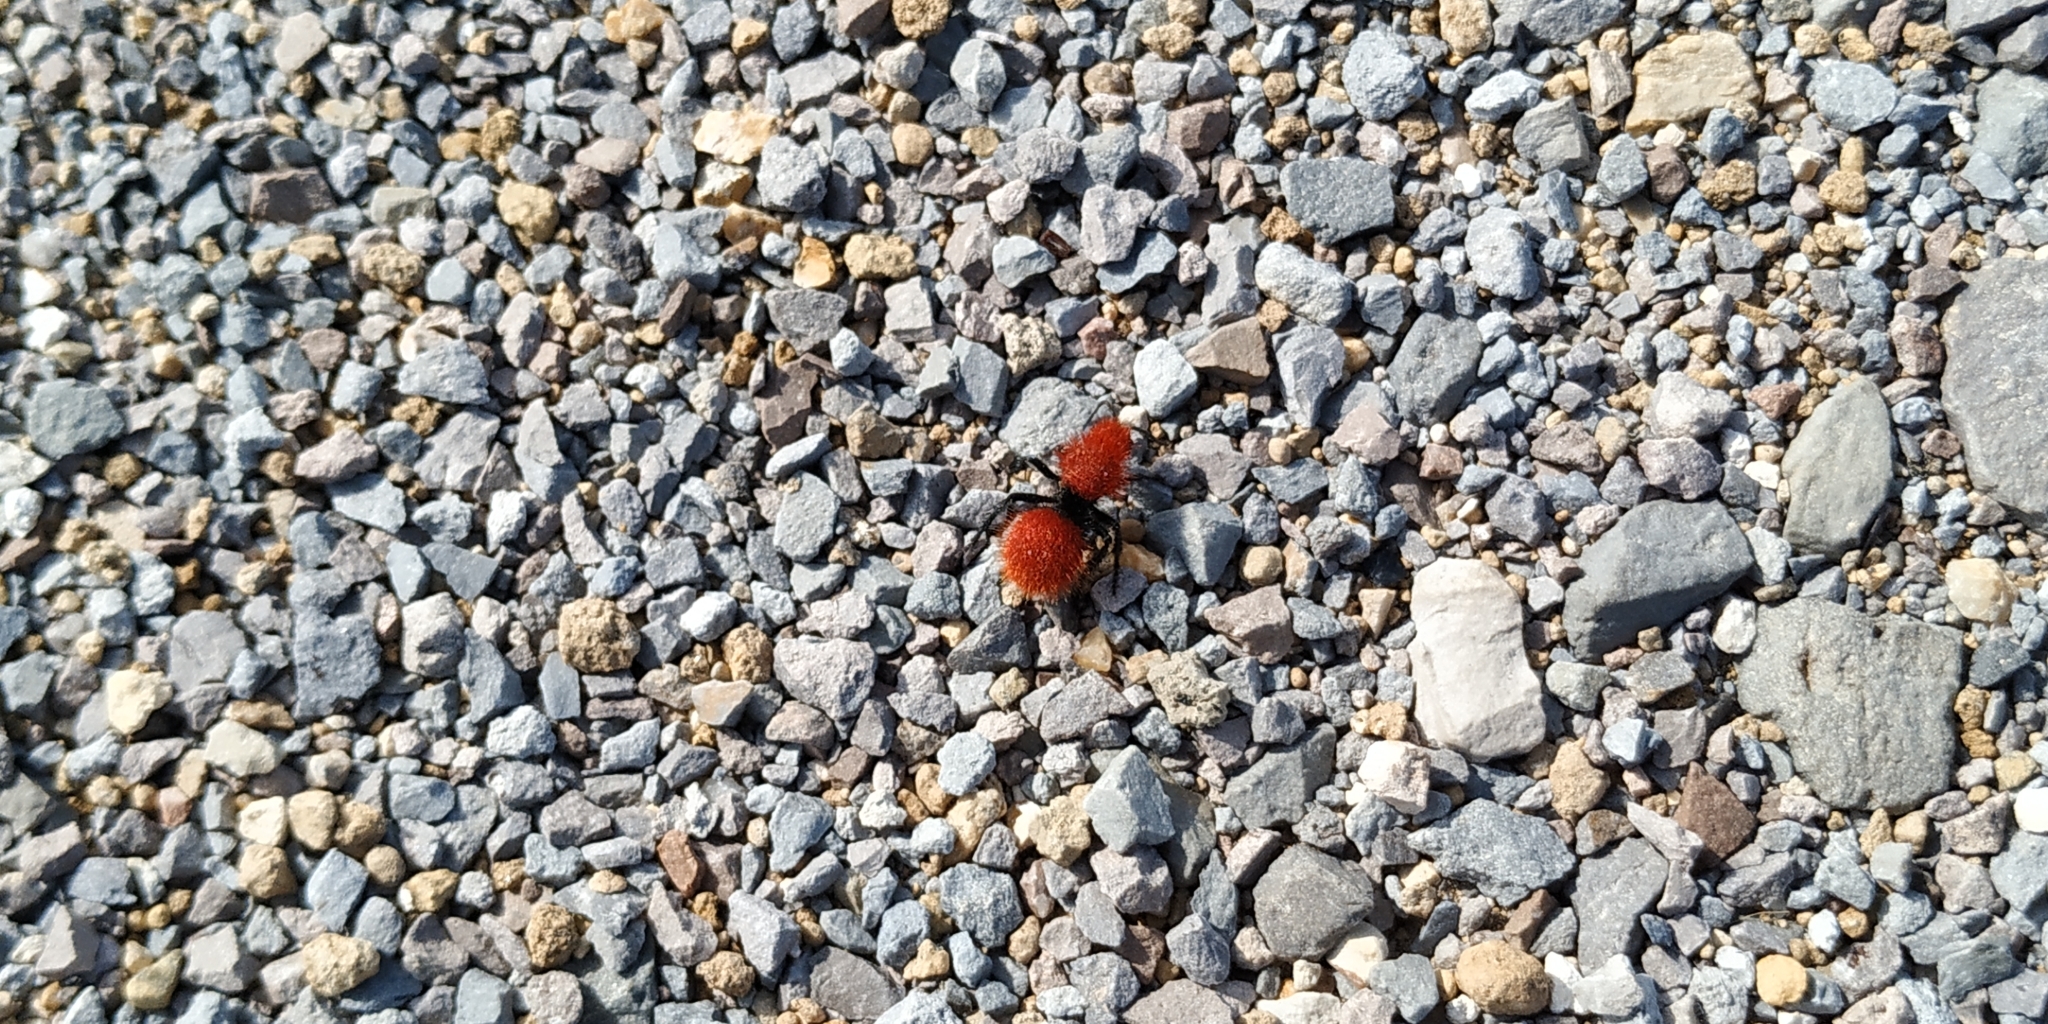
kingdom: Animalia
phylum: Arthropoda
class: Insecta
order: Hymenoptera
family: Mutillidae
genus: Dasymutilla
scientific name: Dasymutilla vestita
